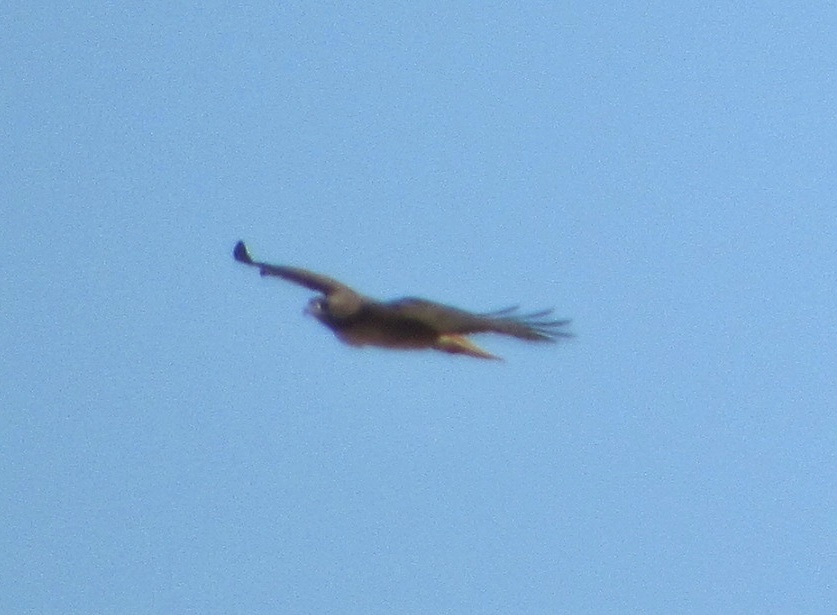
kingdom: Animalia
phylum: Chordata
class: Aves
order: Accipitriformes
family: Accipitridae
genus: Buteo
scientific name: Buteo jamaicensis
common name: Red-tailed hawk
